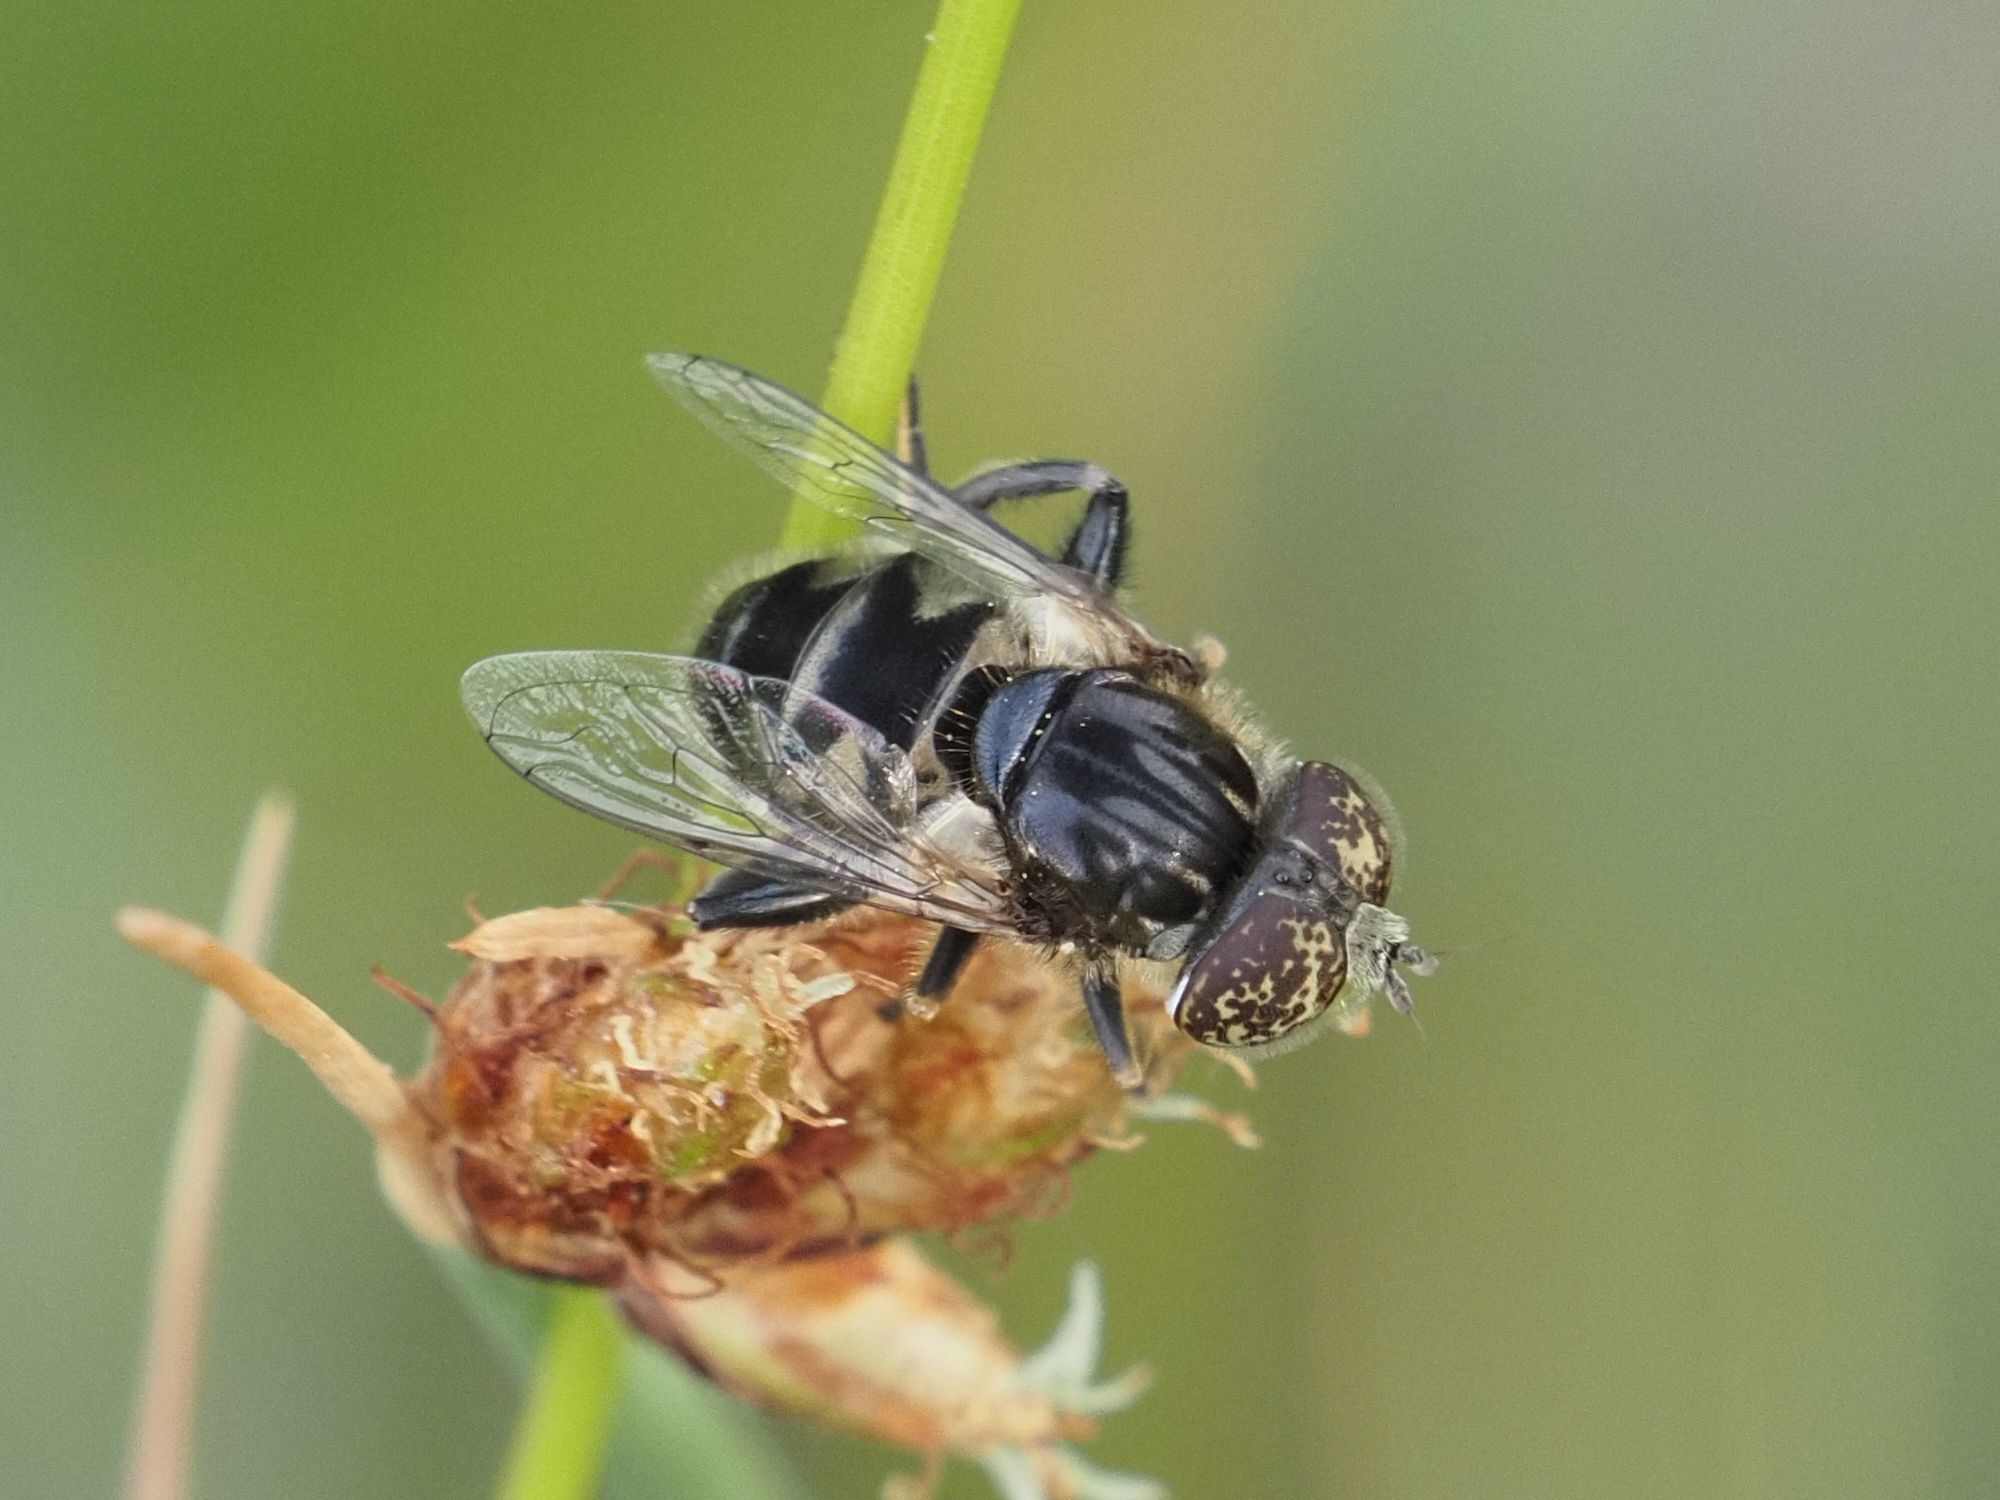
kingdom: Animalia
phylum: Arthropoda
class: Insecta
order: Diptera
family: Syrphidae
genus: Eristalinus
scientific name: Eristalinus sepulchralis
